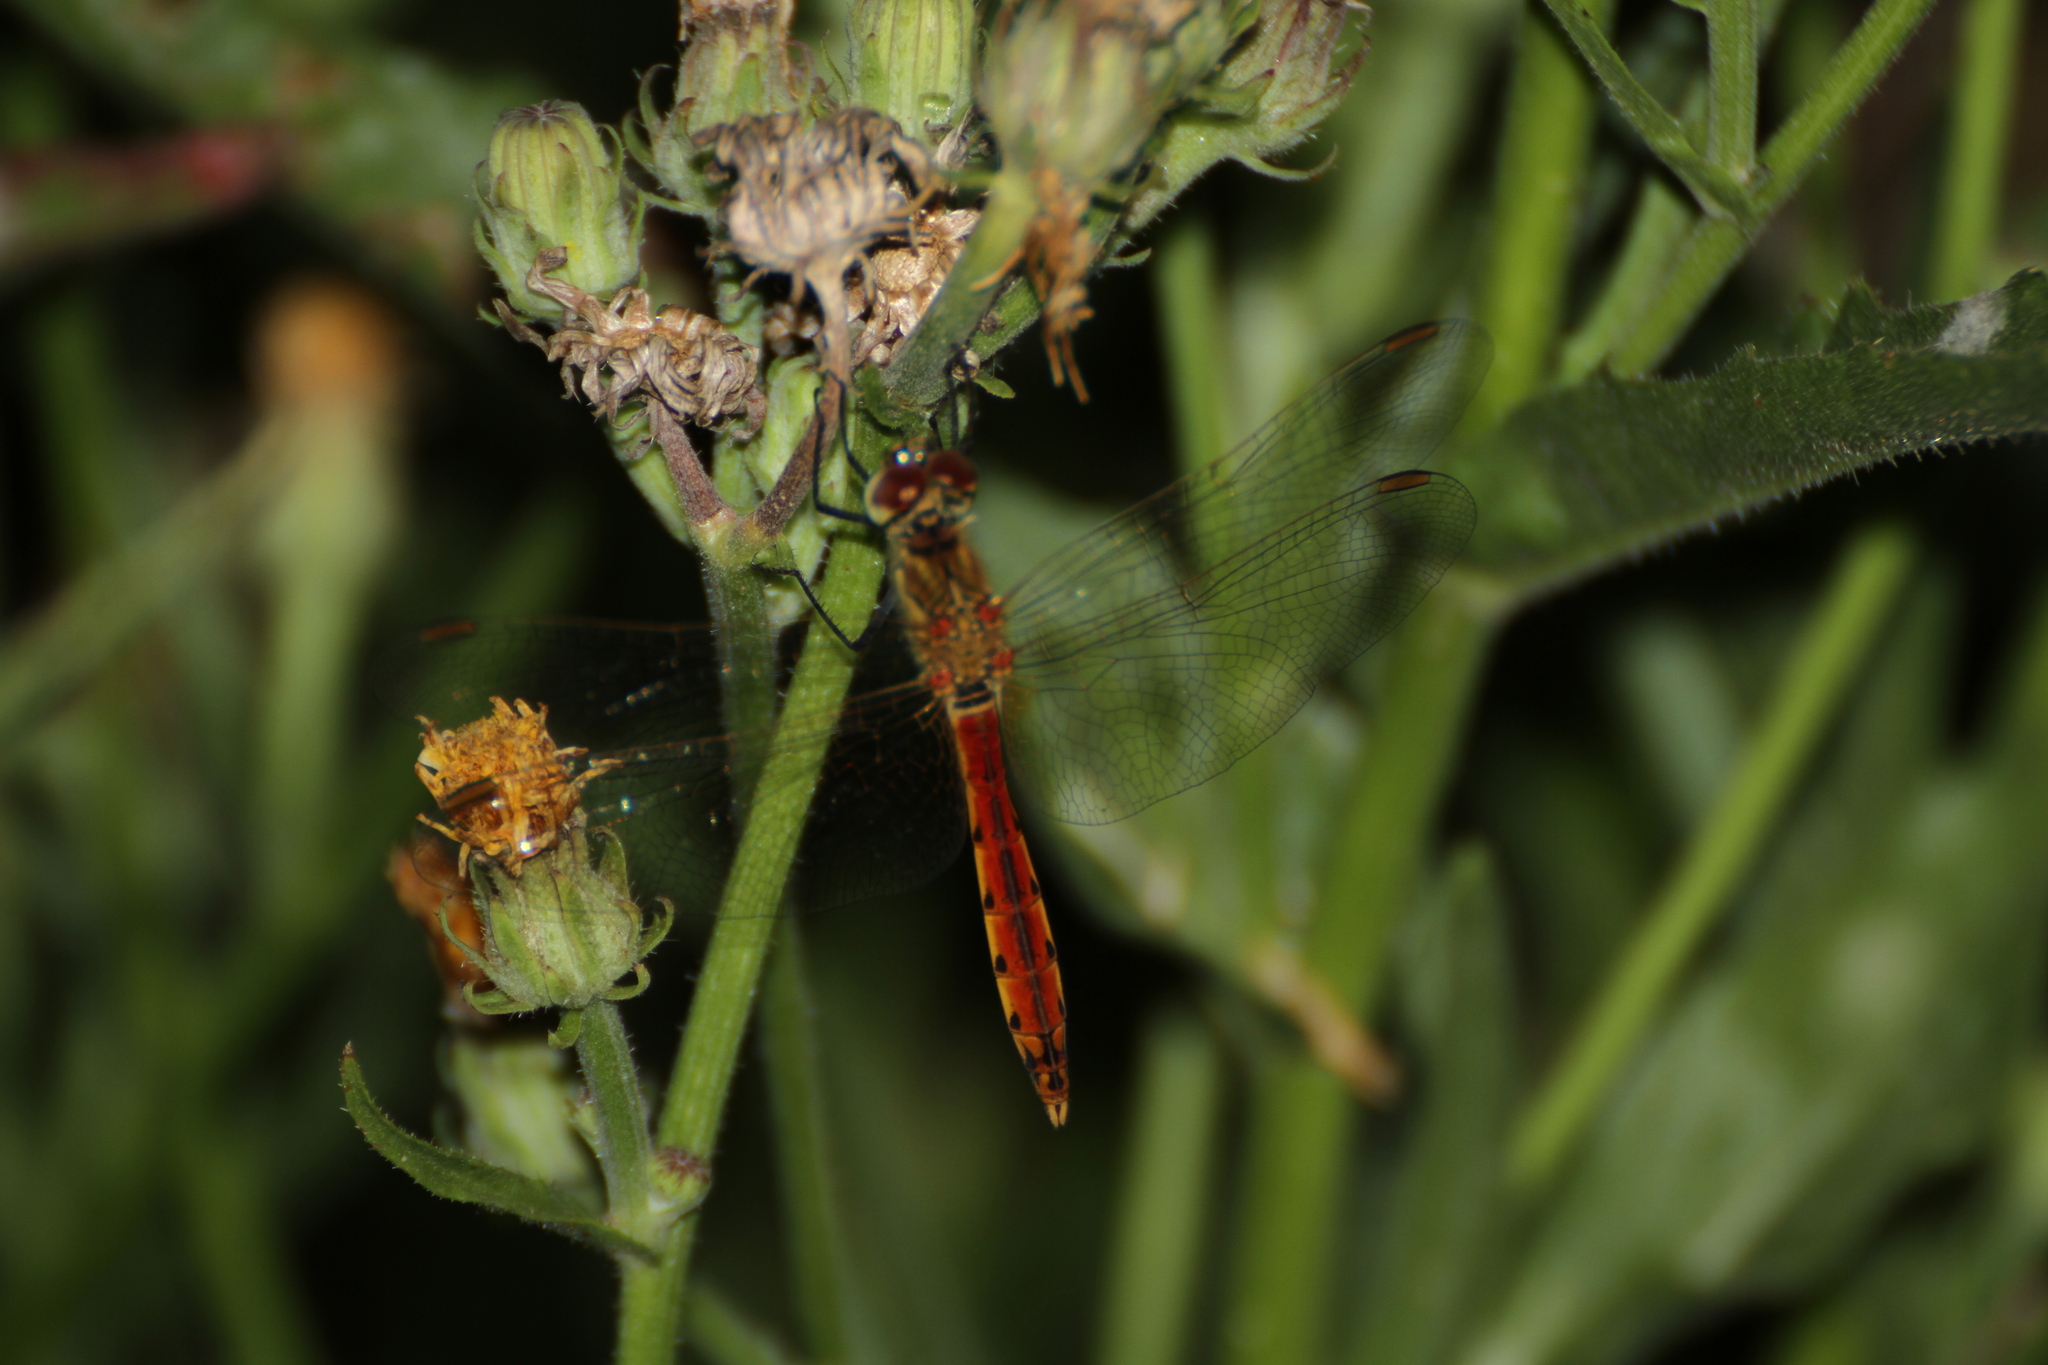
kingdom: Animalia
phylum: Arthropoda
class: Insecta
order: Odonata
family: Libellulidae
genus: Sympetrum
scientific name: Sympetrum depressiusculum
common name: Spotted darter
